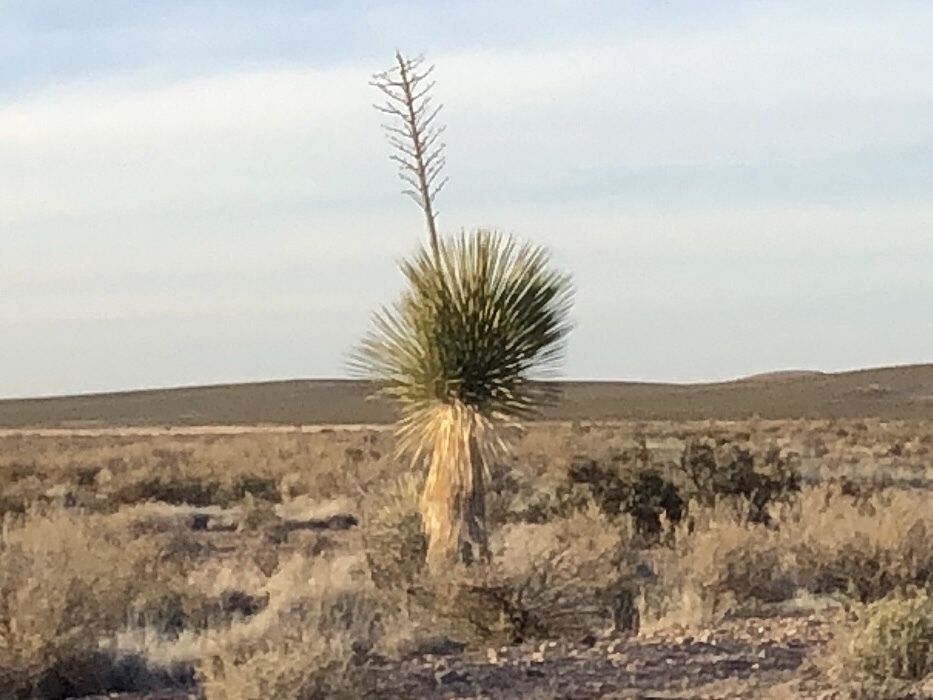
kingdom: Plantae
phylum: Tracheophyta
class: Liliopsida
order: Asparagales
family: Asparagaceae
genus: Yucca
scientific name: Yucca elata
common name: Palmella
